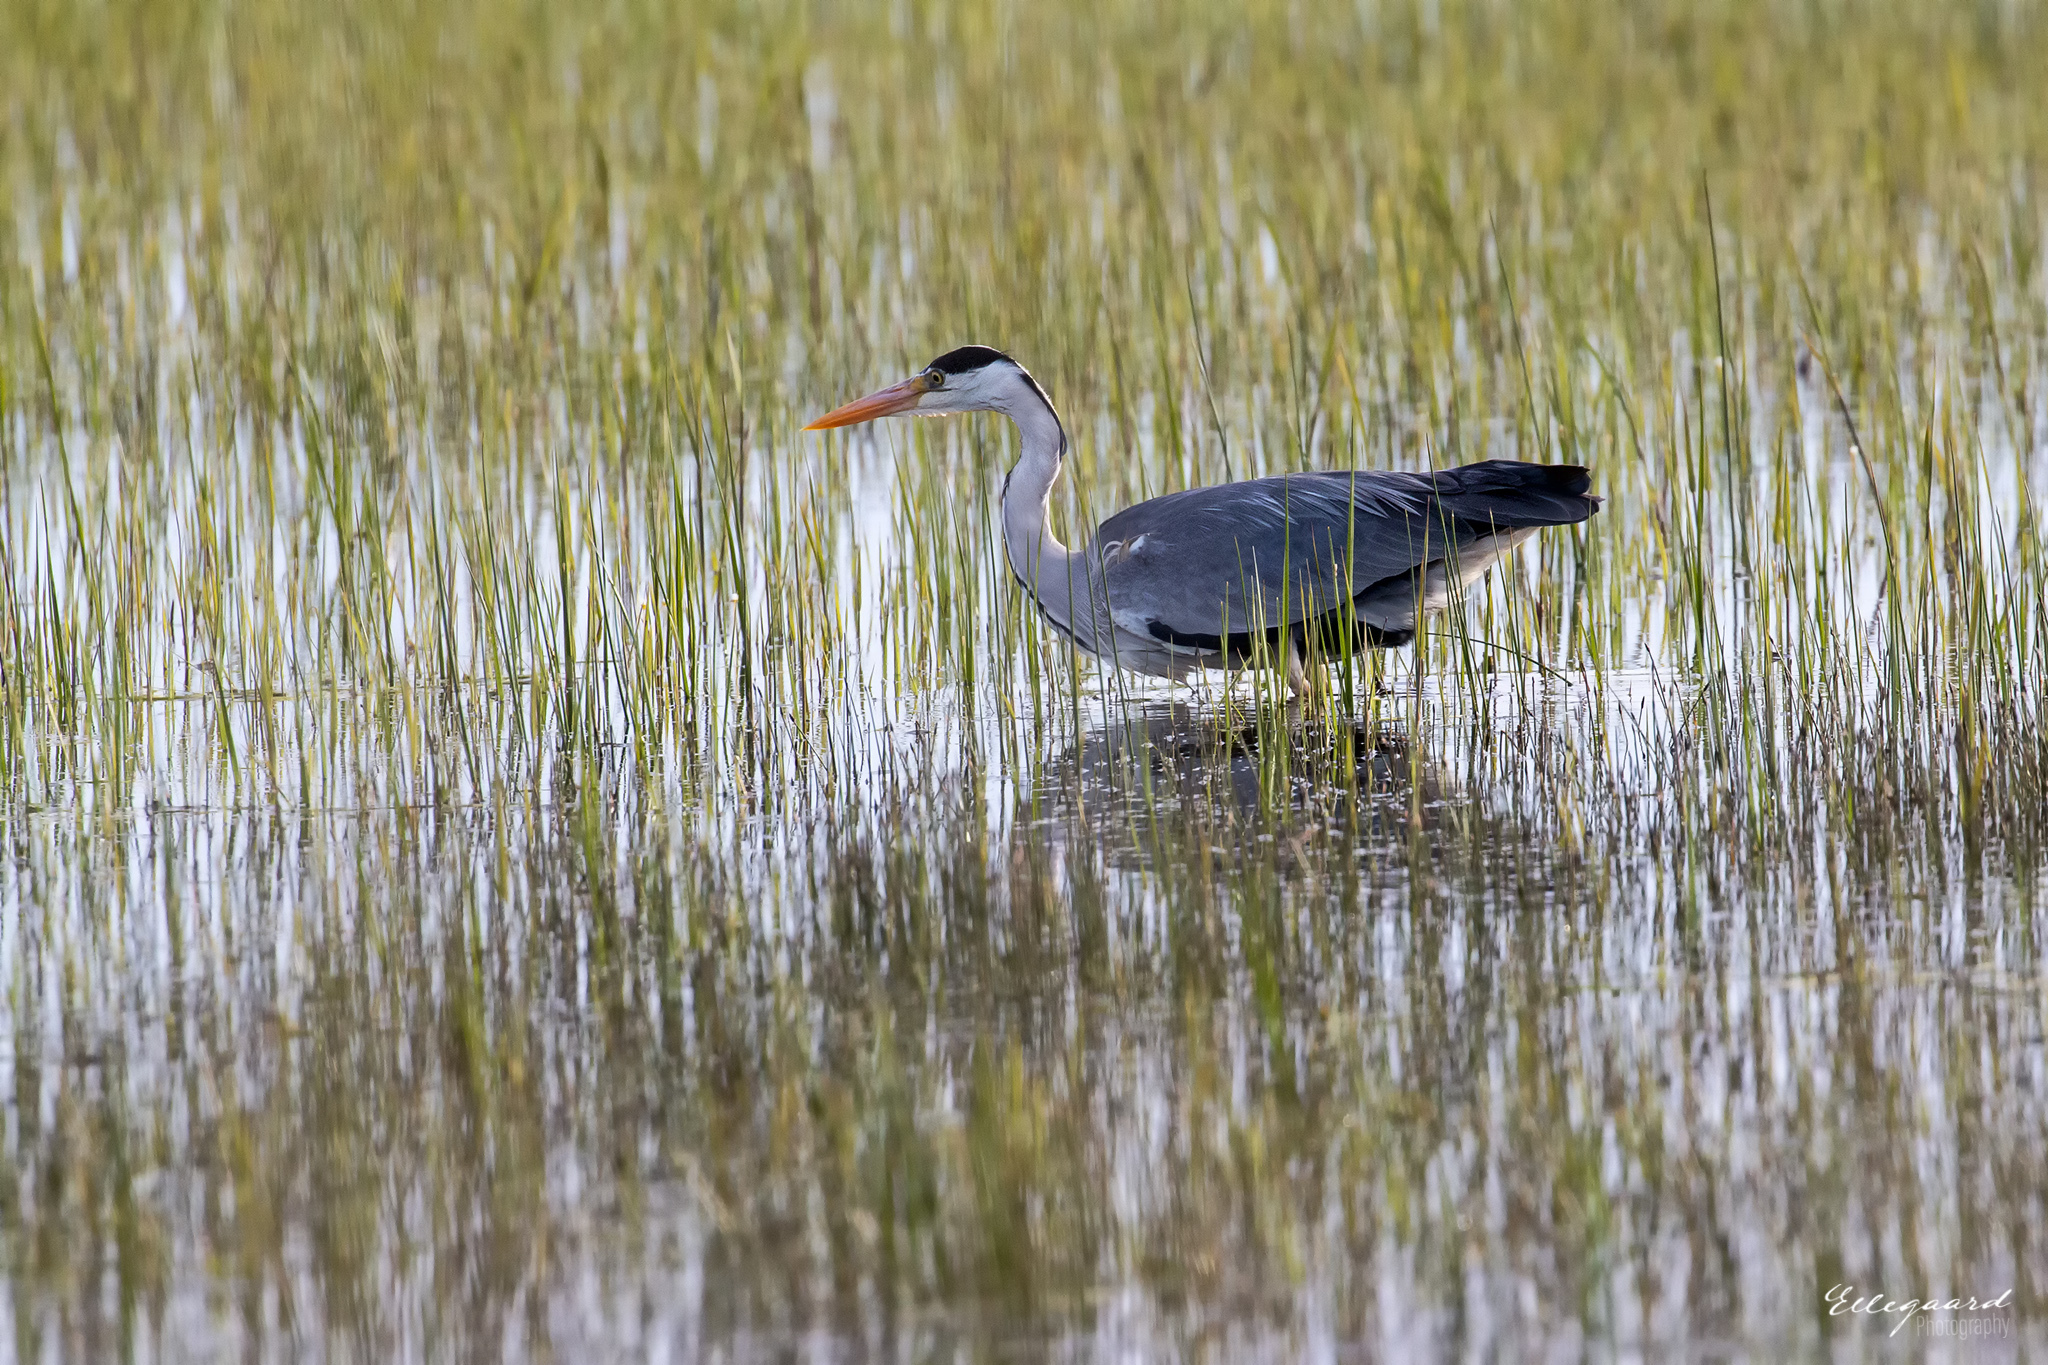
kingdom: Animalia
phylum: Chordata
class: Aves
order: Pelecaniformes
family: Ardeidae
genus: Ardea
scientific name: Ardea cinerea
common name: Grey heron
